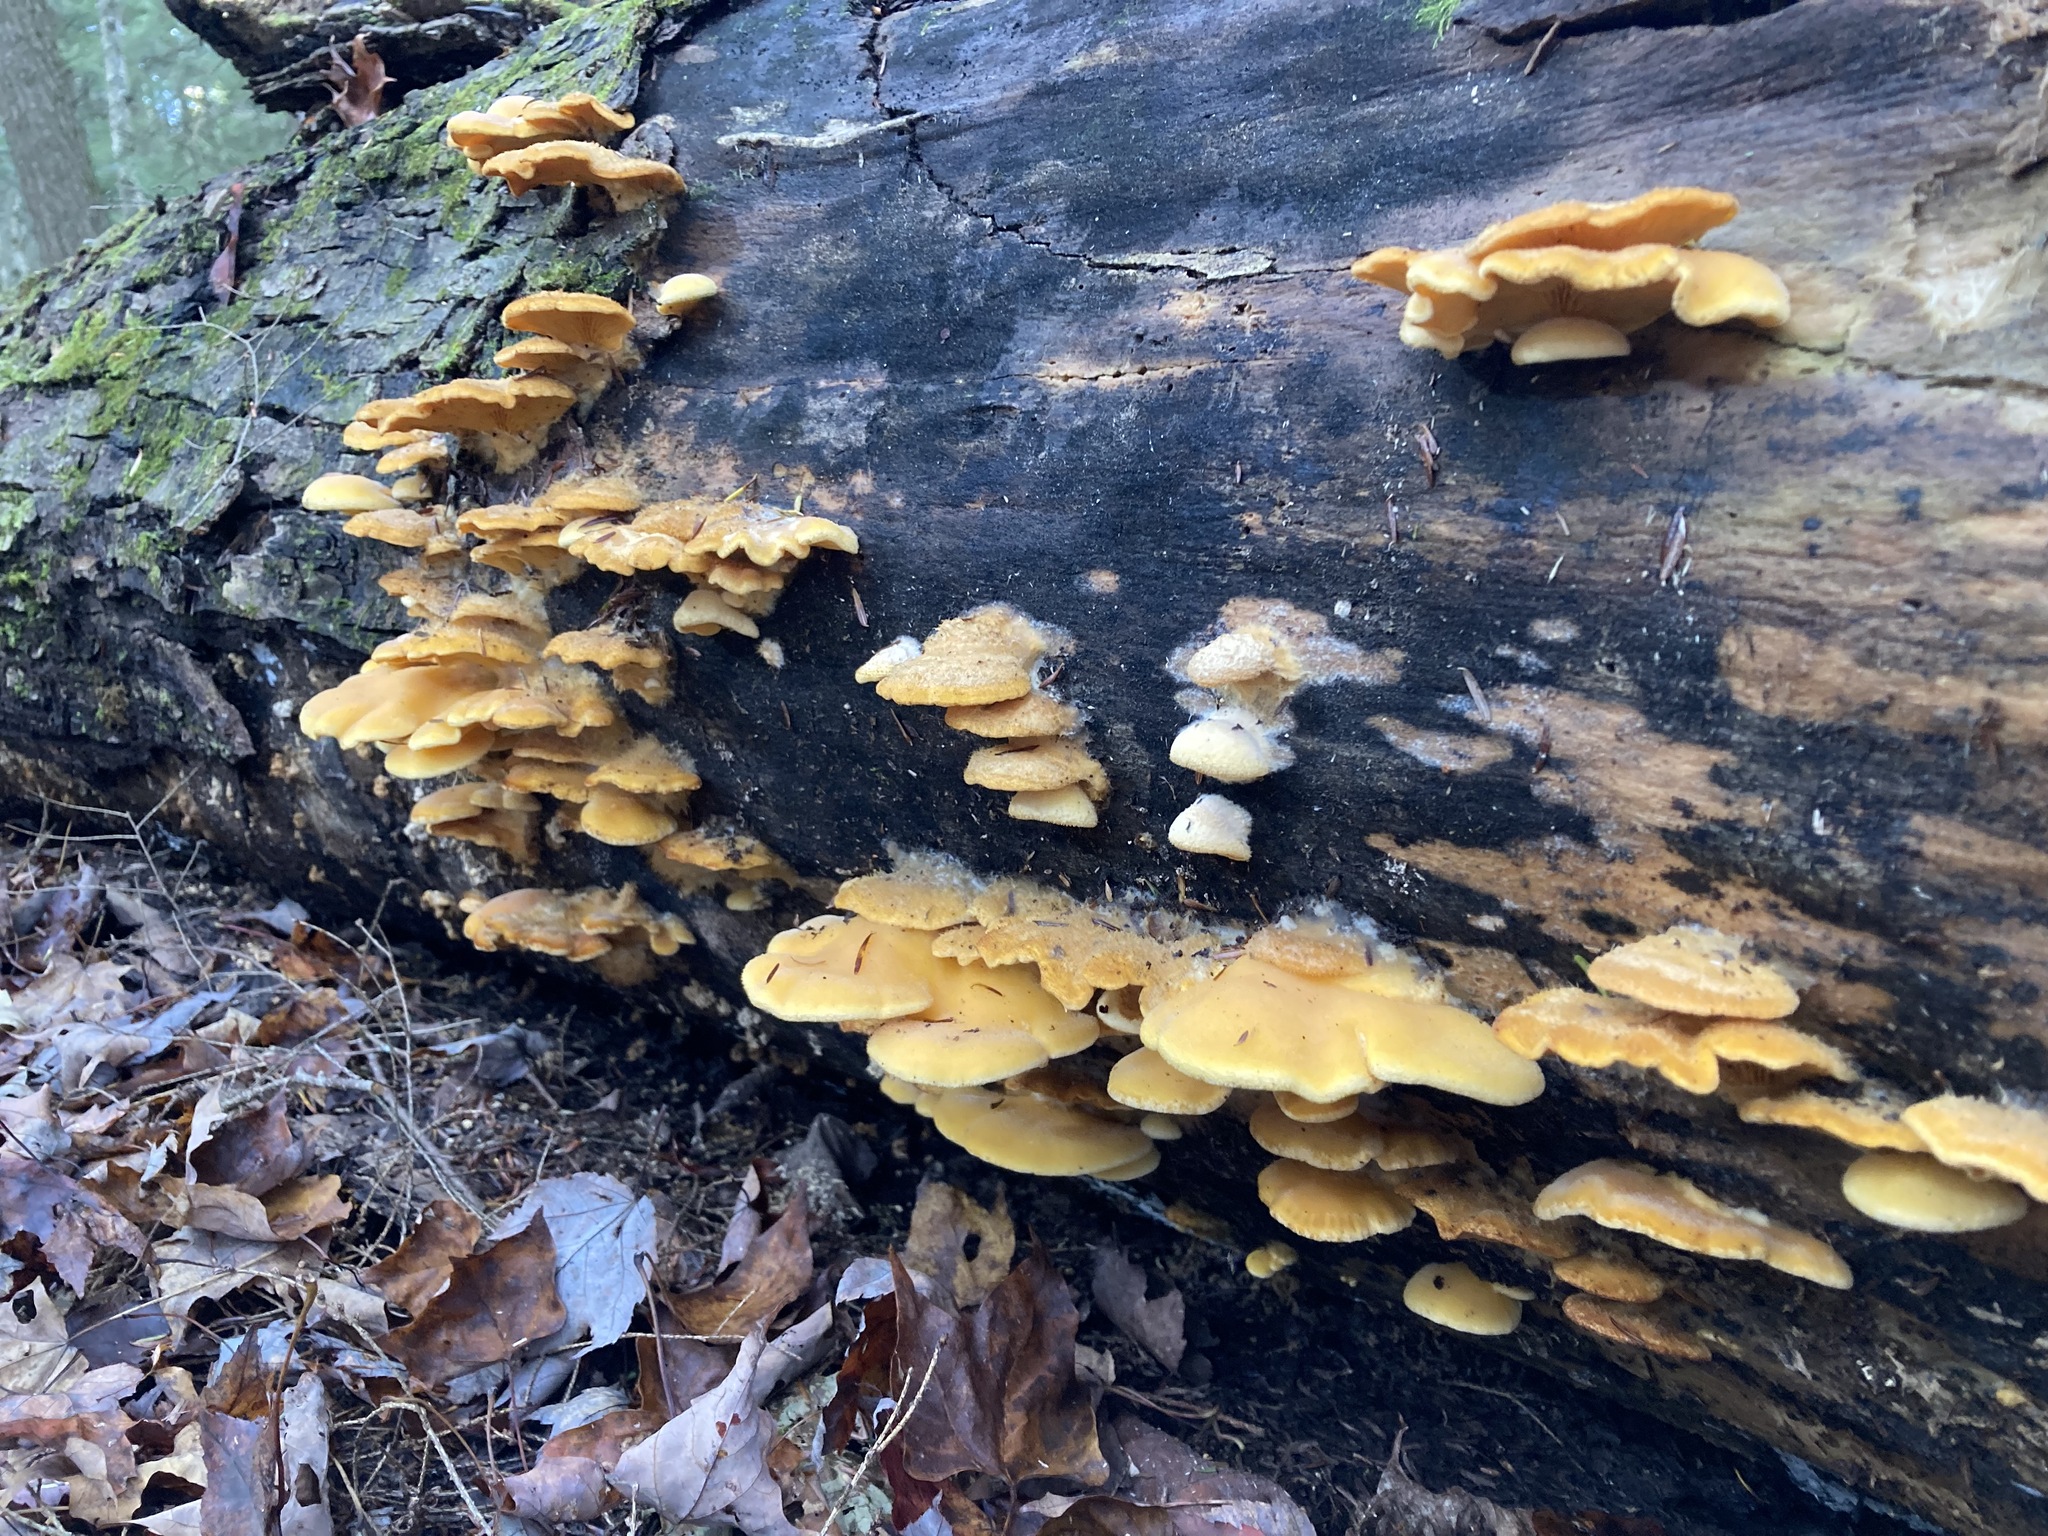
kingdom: Fungi
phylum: Basidiomycota
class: Agaricomycetes
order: Agaricales
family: Phyllotopsidaceae
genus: Phyllotopsis
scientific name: Phyllotopsis nidulans
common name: Orange mock oyster
